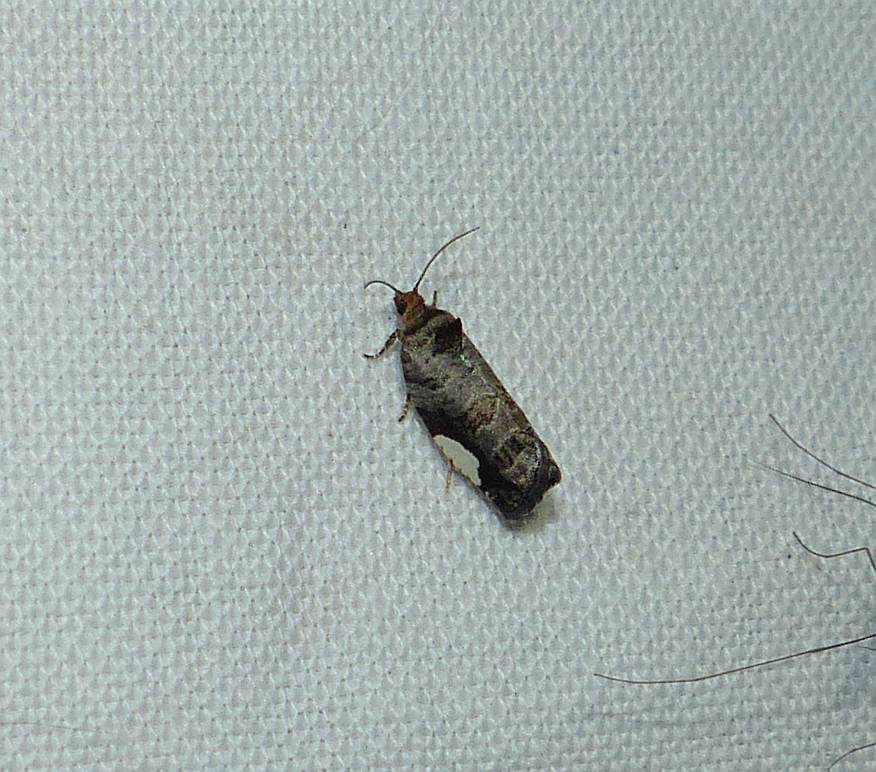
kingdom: Animalia
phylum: Arthropoda
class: Insecta
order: Lepidoptera
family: Tortricidae
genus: Hedya
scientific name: Hedya chionosema
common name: White-spotted hedya moth
